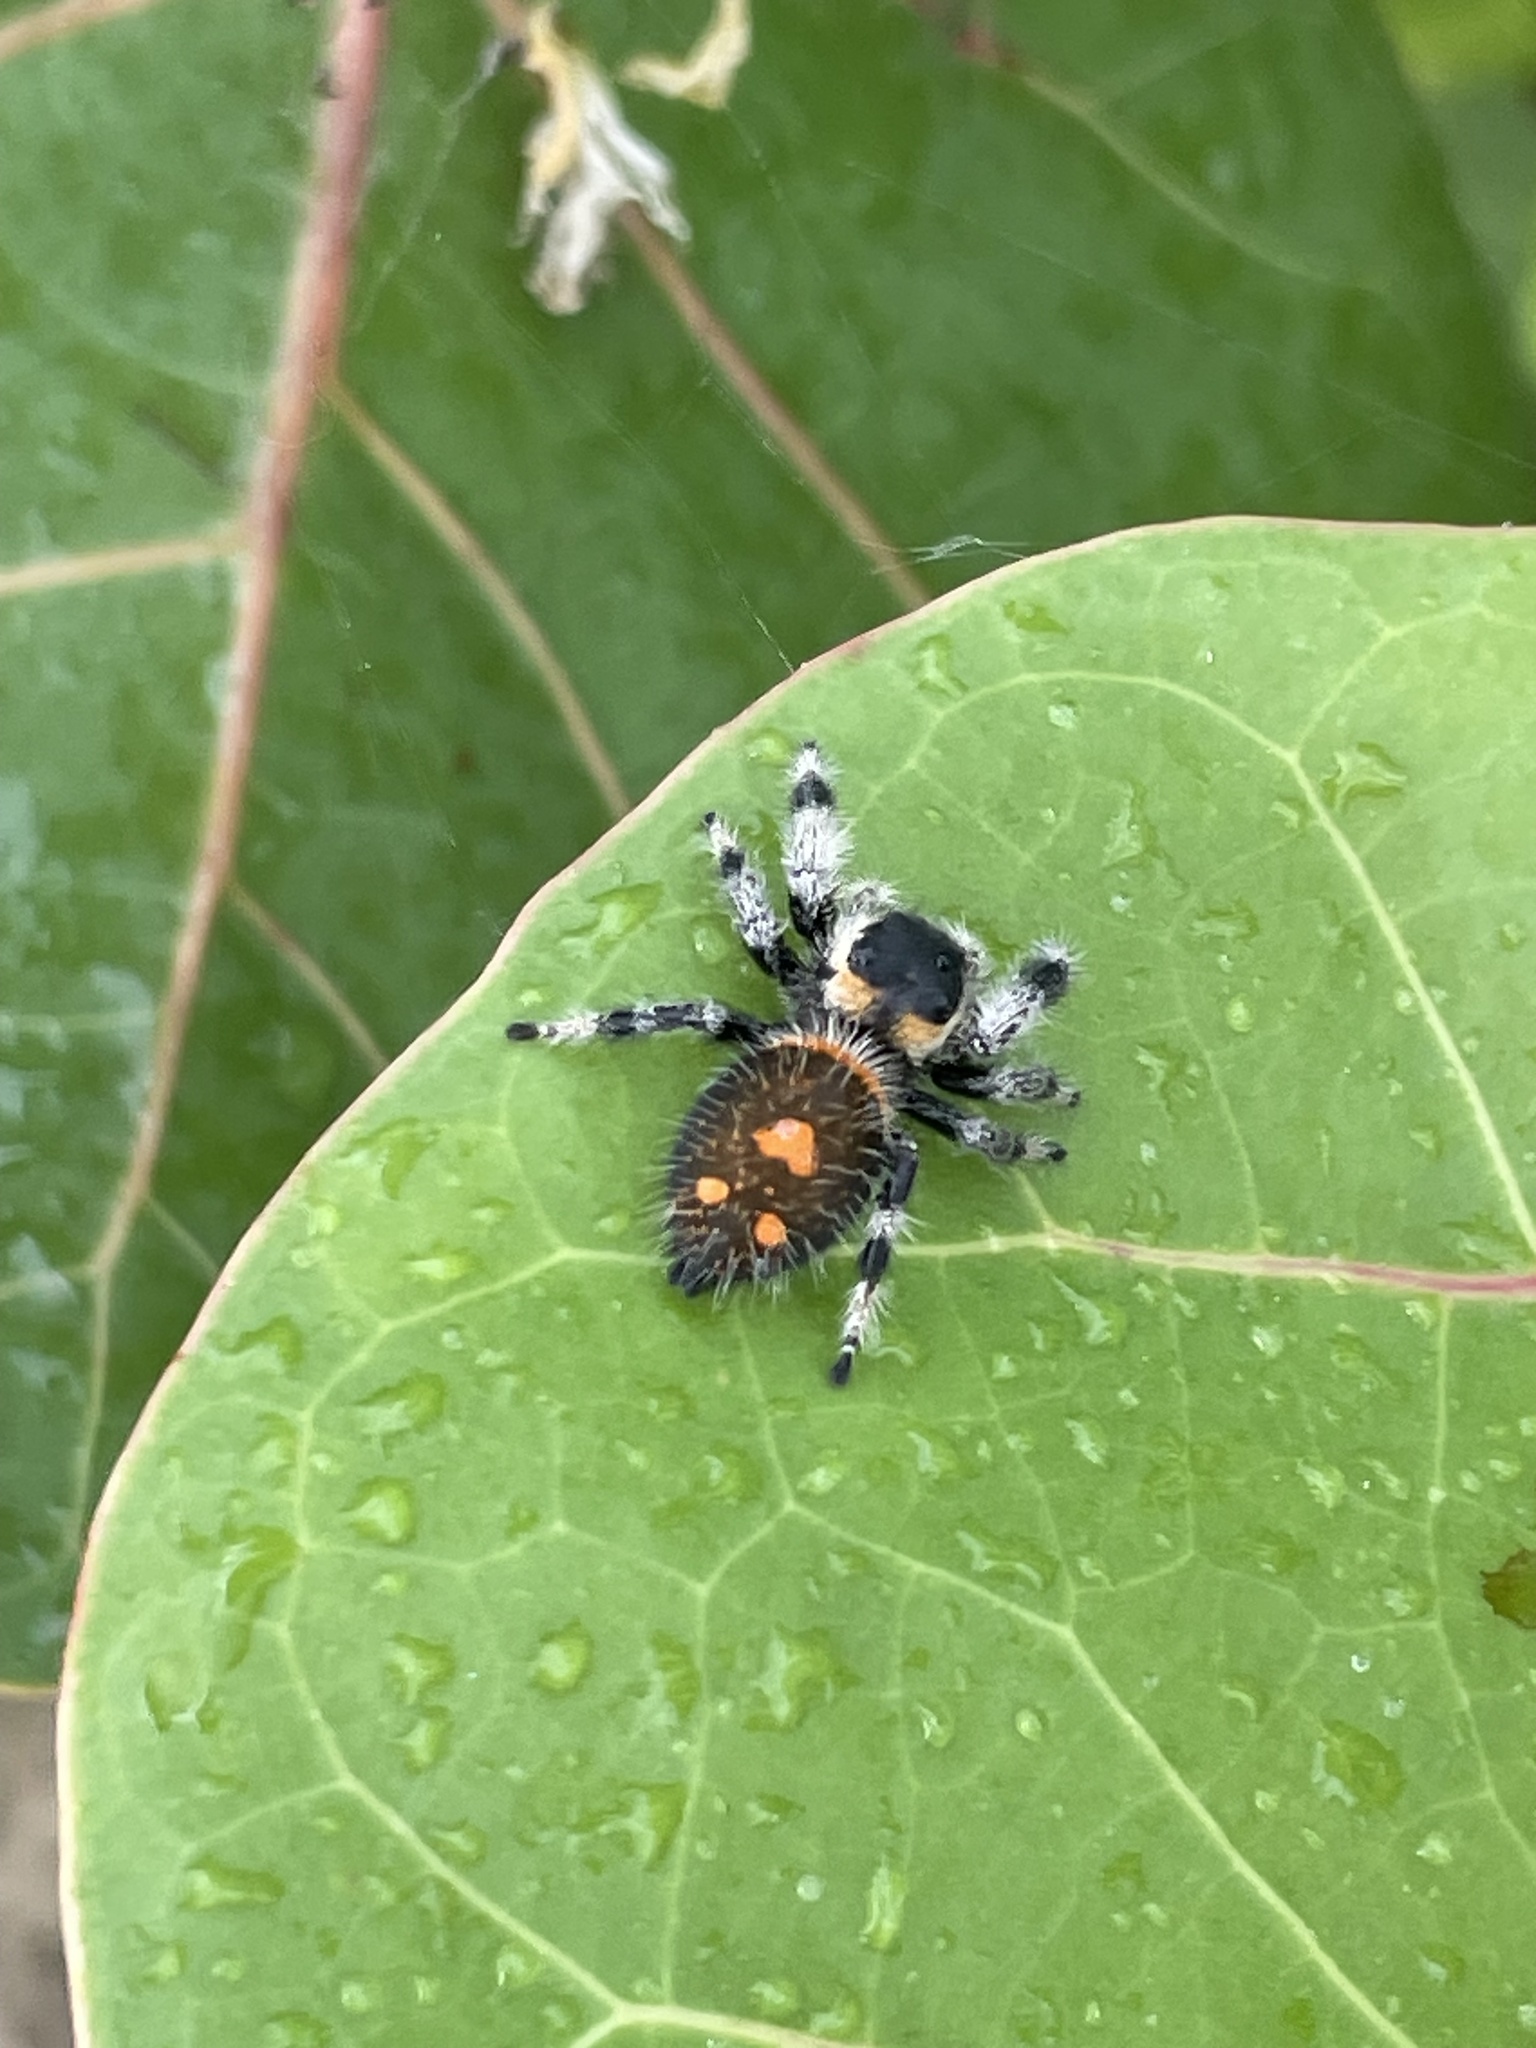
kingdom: Animalia
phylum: Arthropoda
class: Arachnida
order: Araneae
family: Salticidae
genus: Phidippus
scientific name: Phidippus regius
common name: Regal jumper
